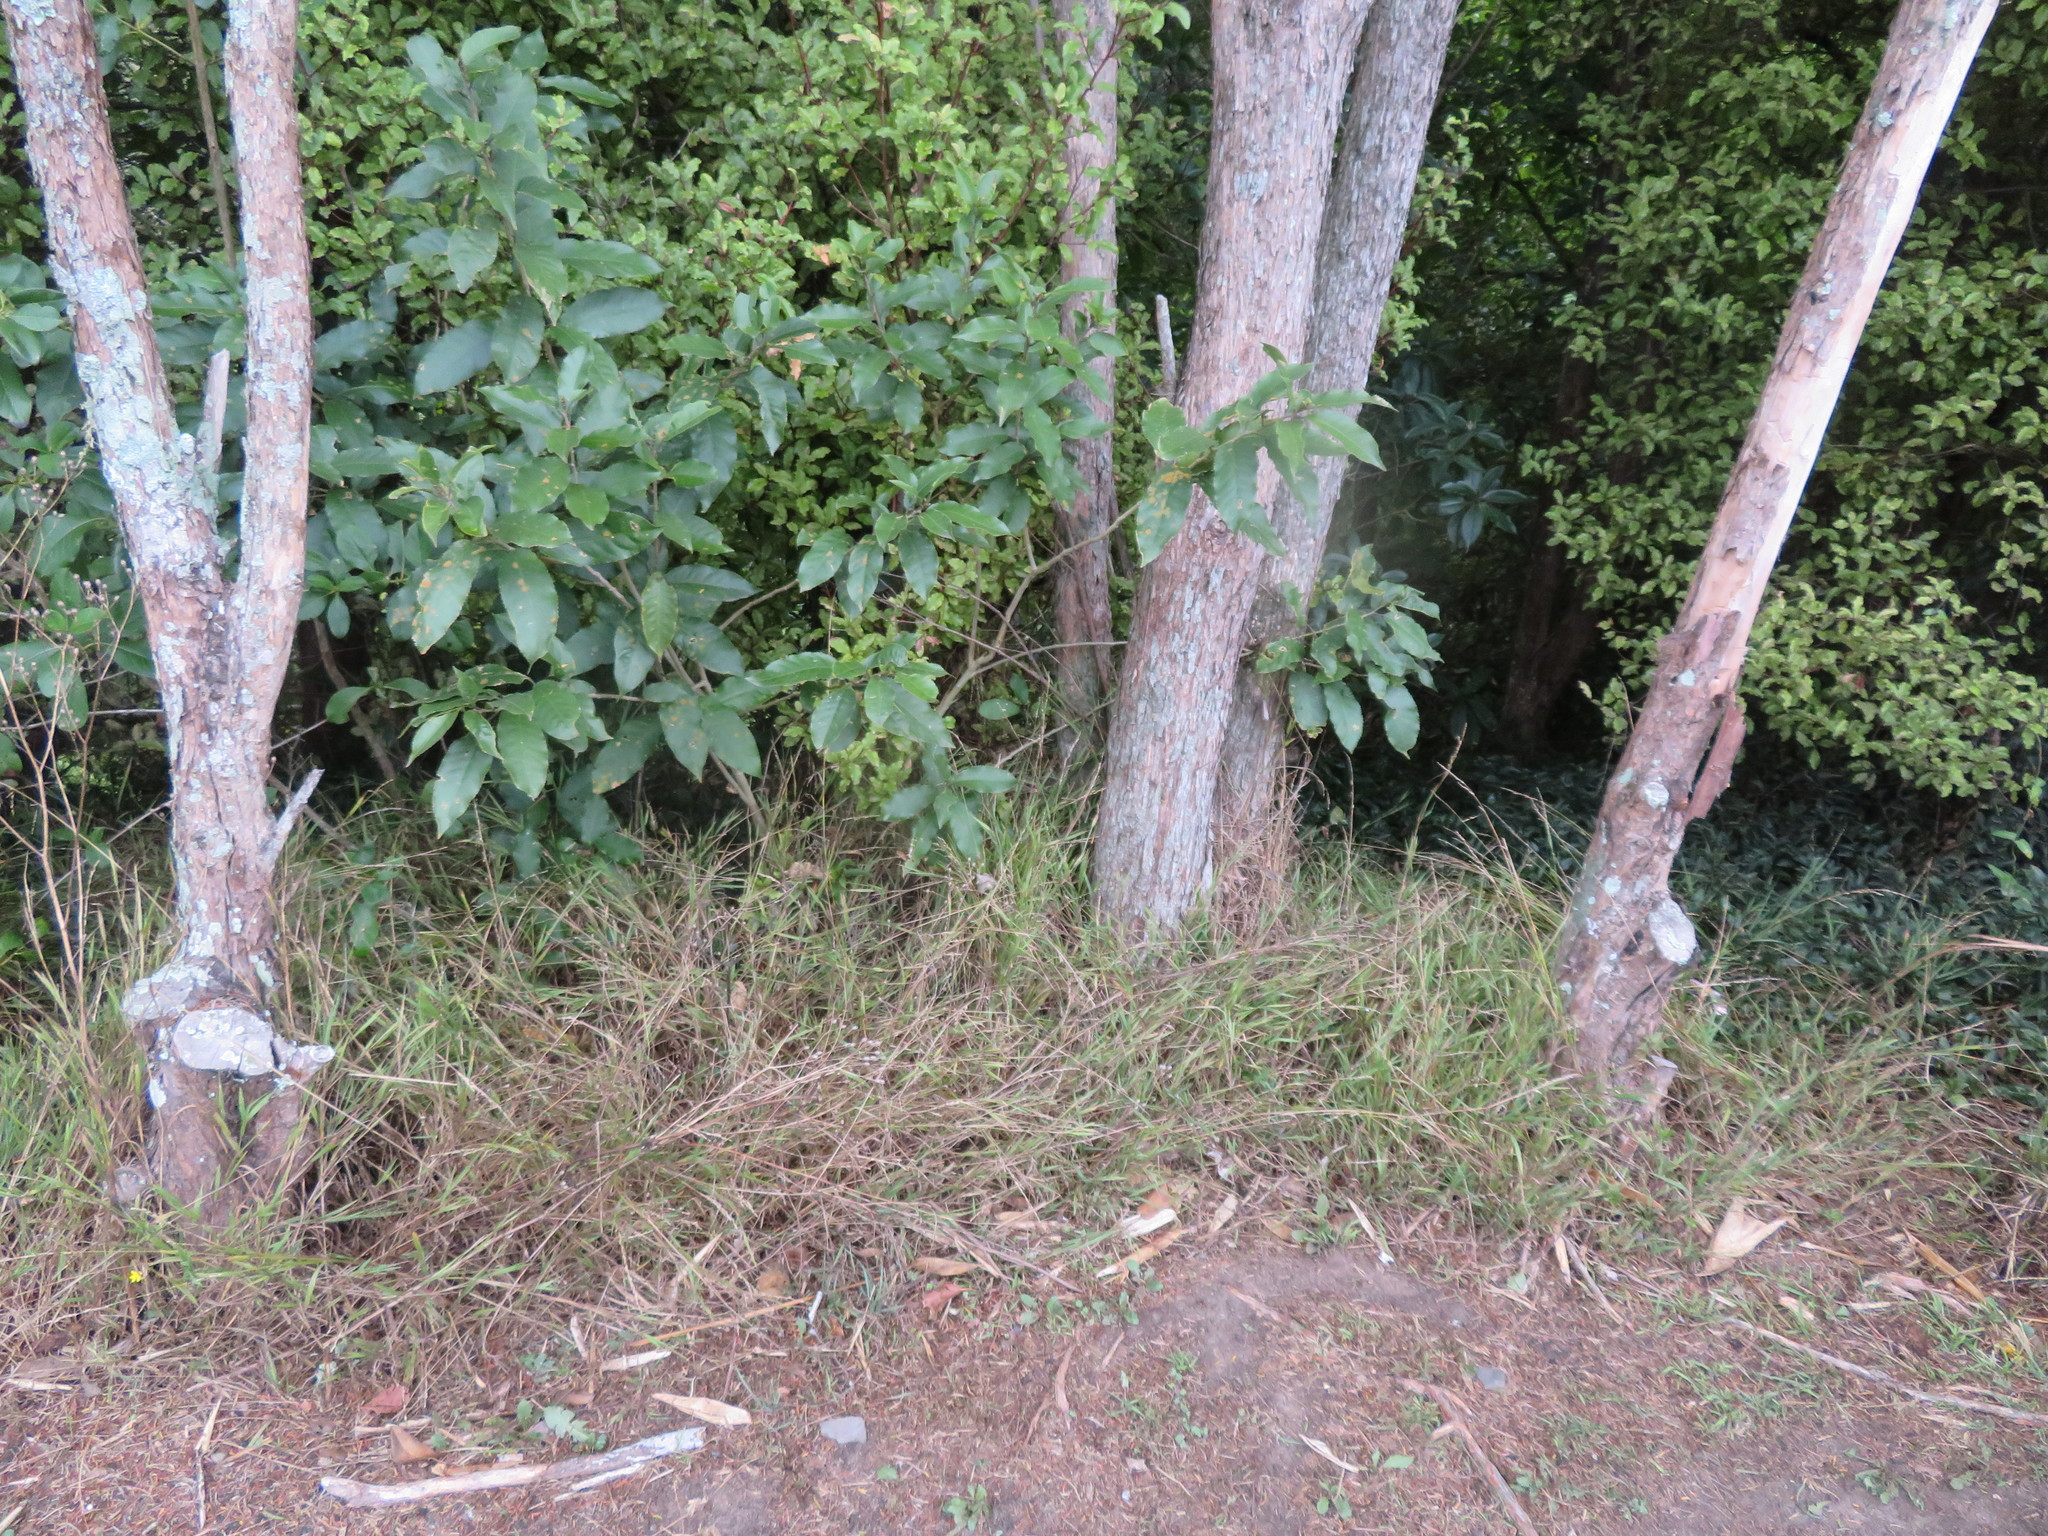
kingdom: Plantae
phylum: Tracheophyta
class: Magnoliopsida
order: Malpighiales
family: Violaceae
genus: Melicytus
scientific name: Melicytus ramiflorus
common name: Mahoe
